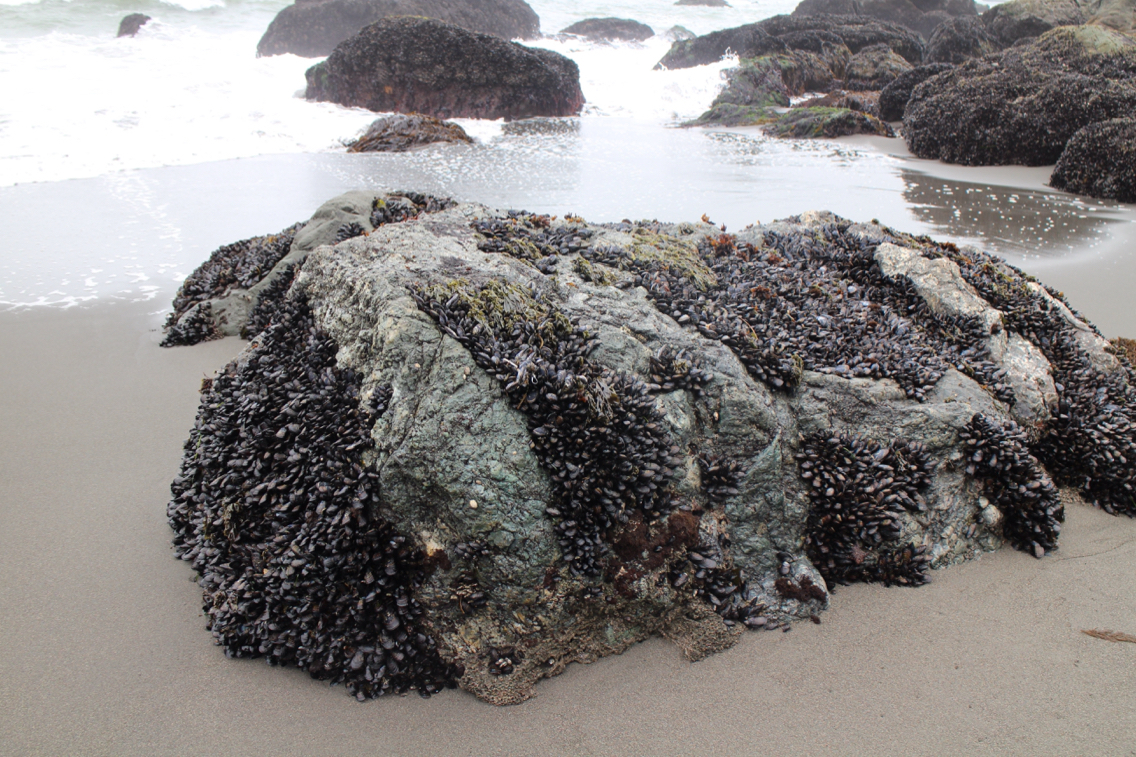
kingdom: Animalia
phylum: Mollusca
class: Bivalvia
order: Mytilida
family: Mytilidae
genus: Mytilus
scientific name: Mytilus californianus
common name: California mussel
